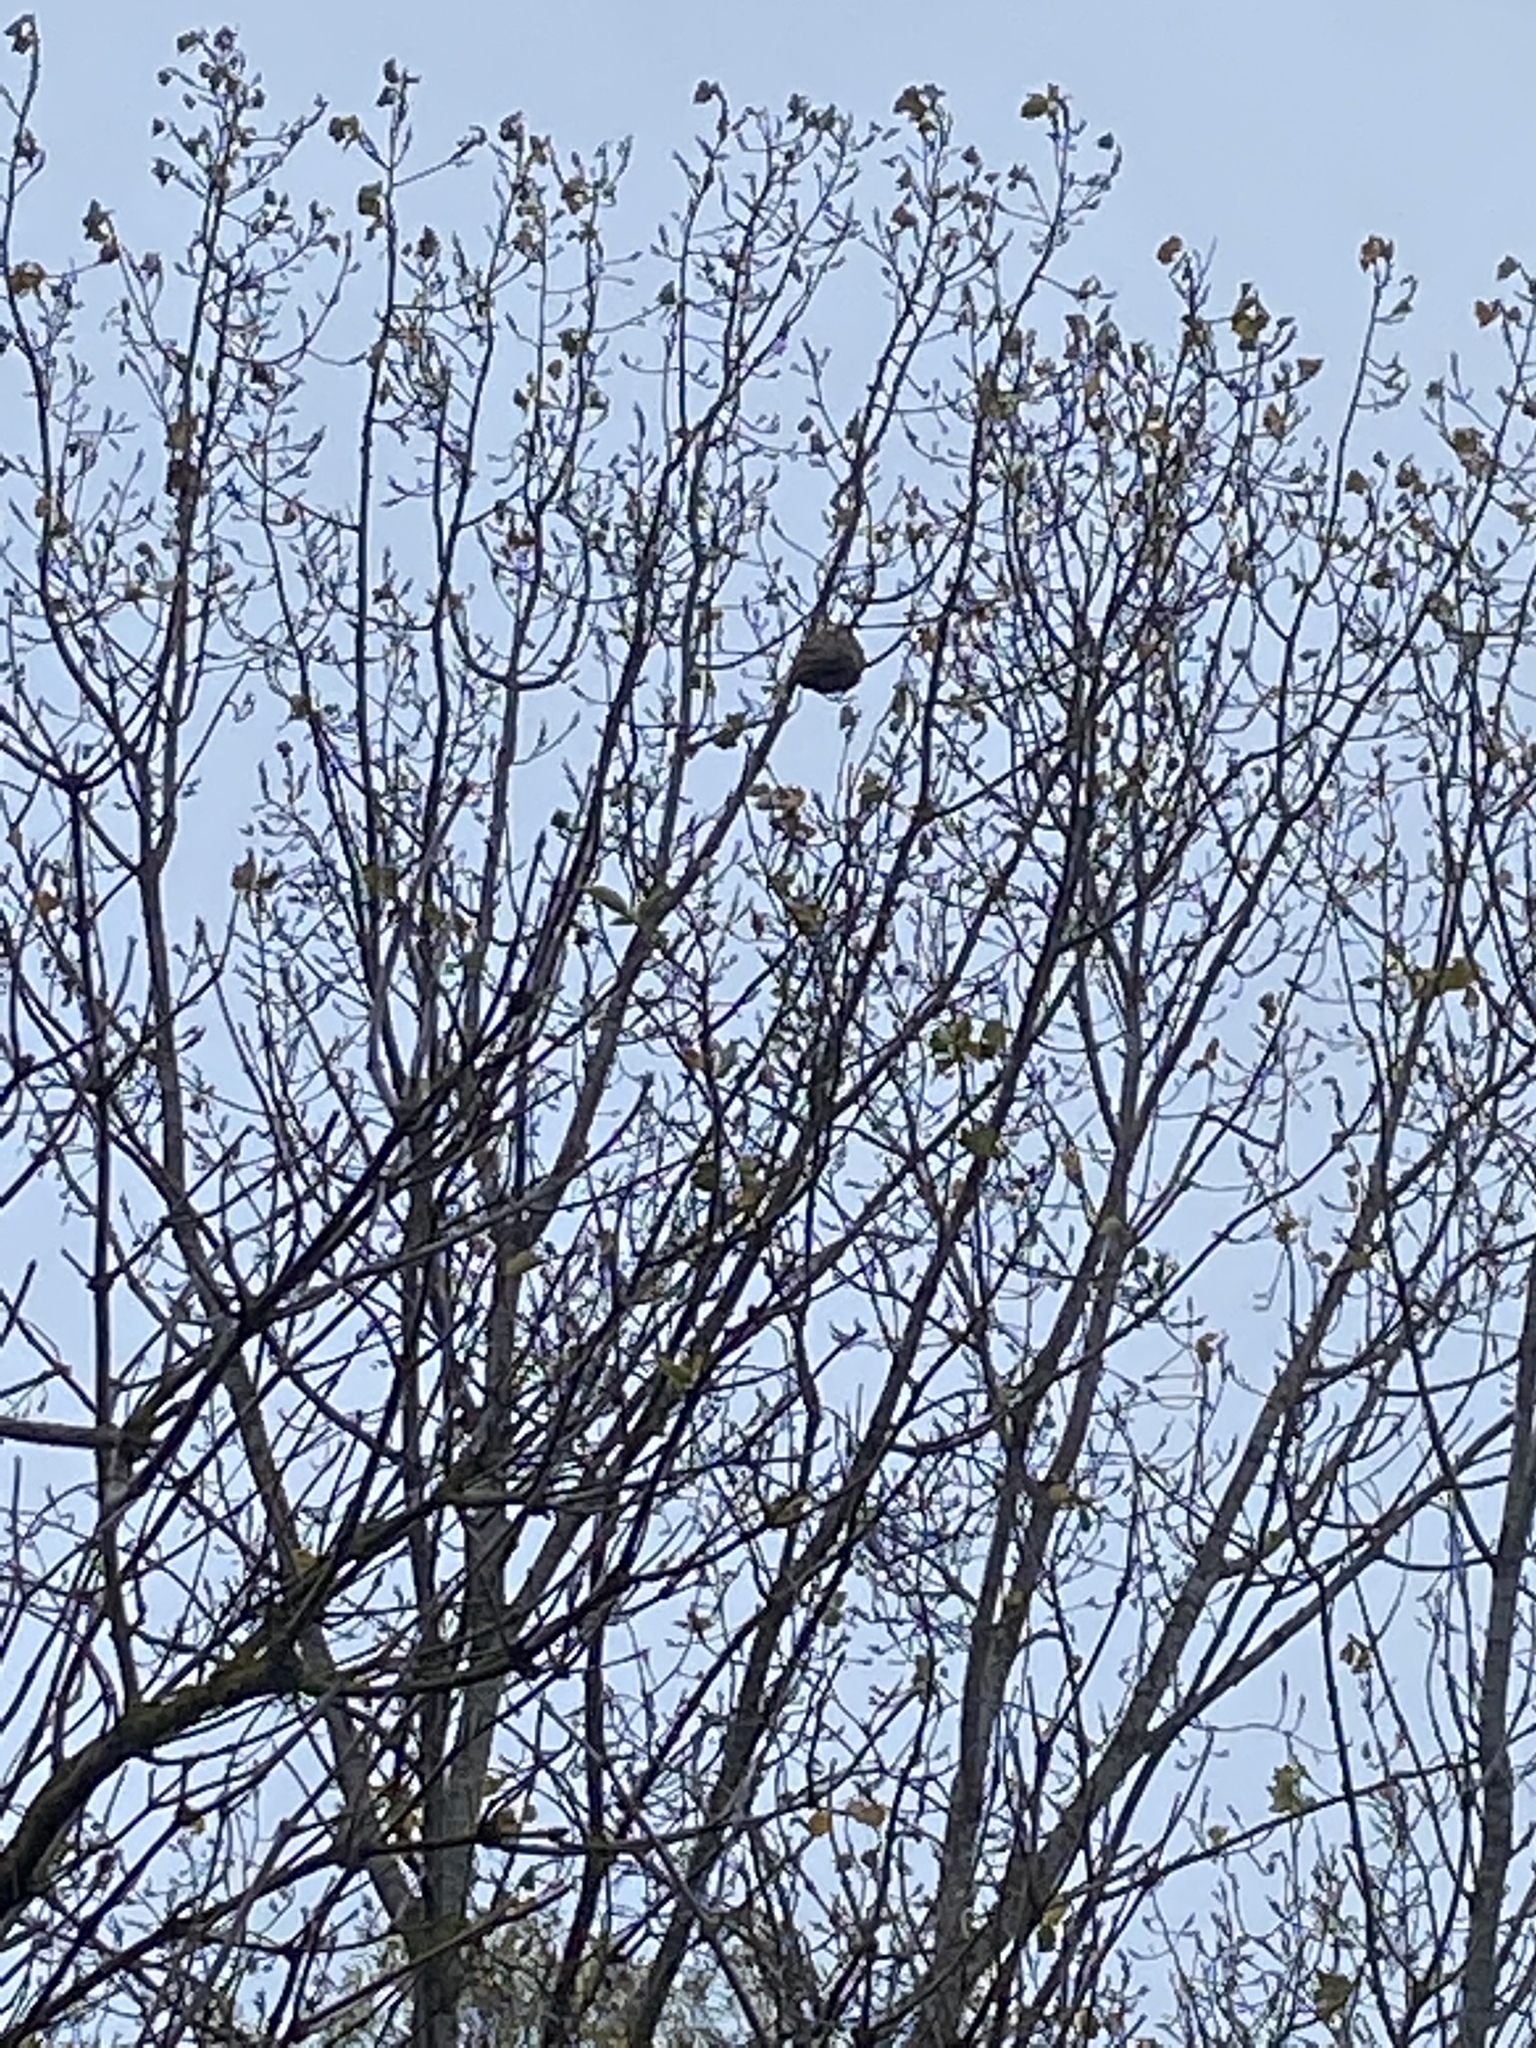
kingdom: Animalia
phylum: Arthropoda
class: Insecta
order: Hymenoptera
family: Vespidae
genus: Vespa
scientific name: Vespa velutina
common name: Asian hornet
